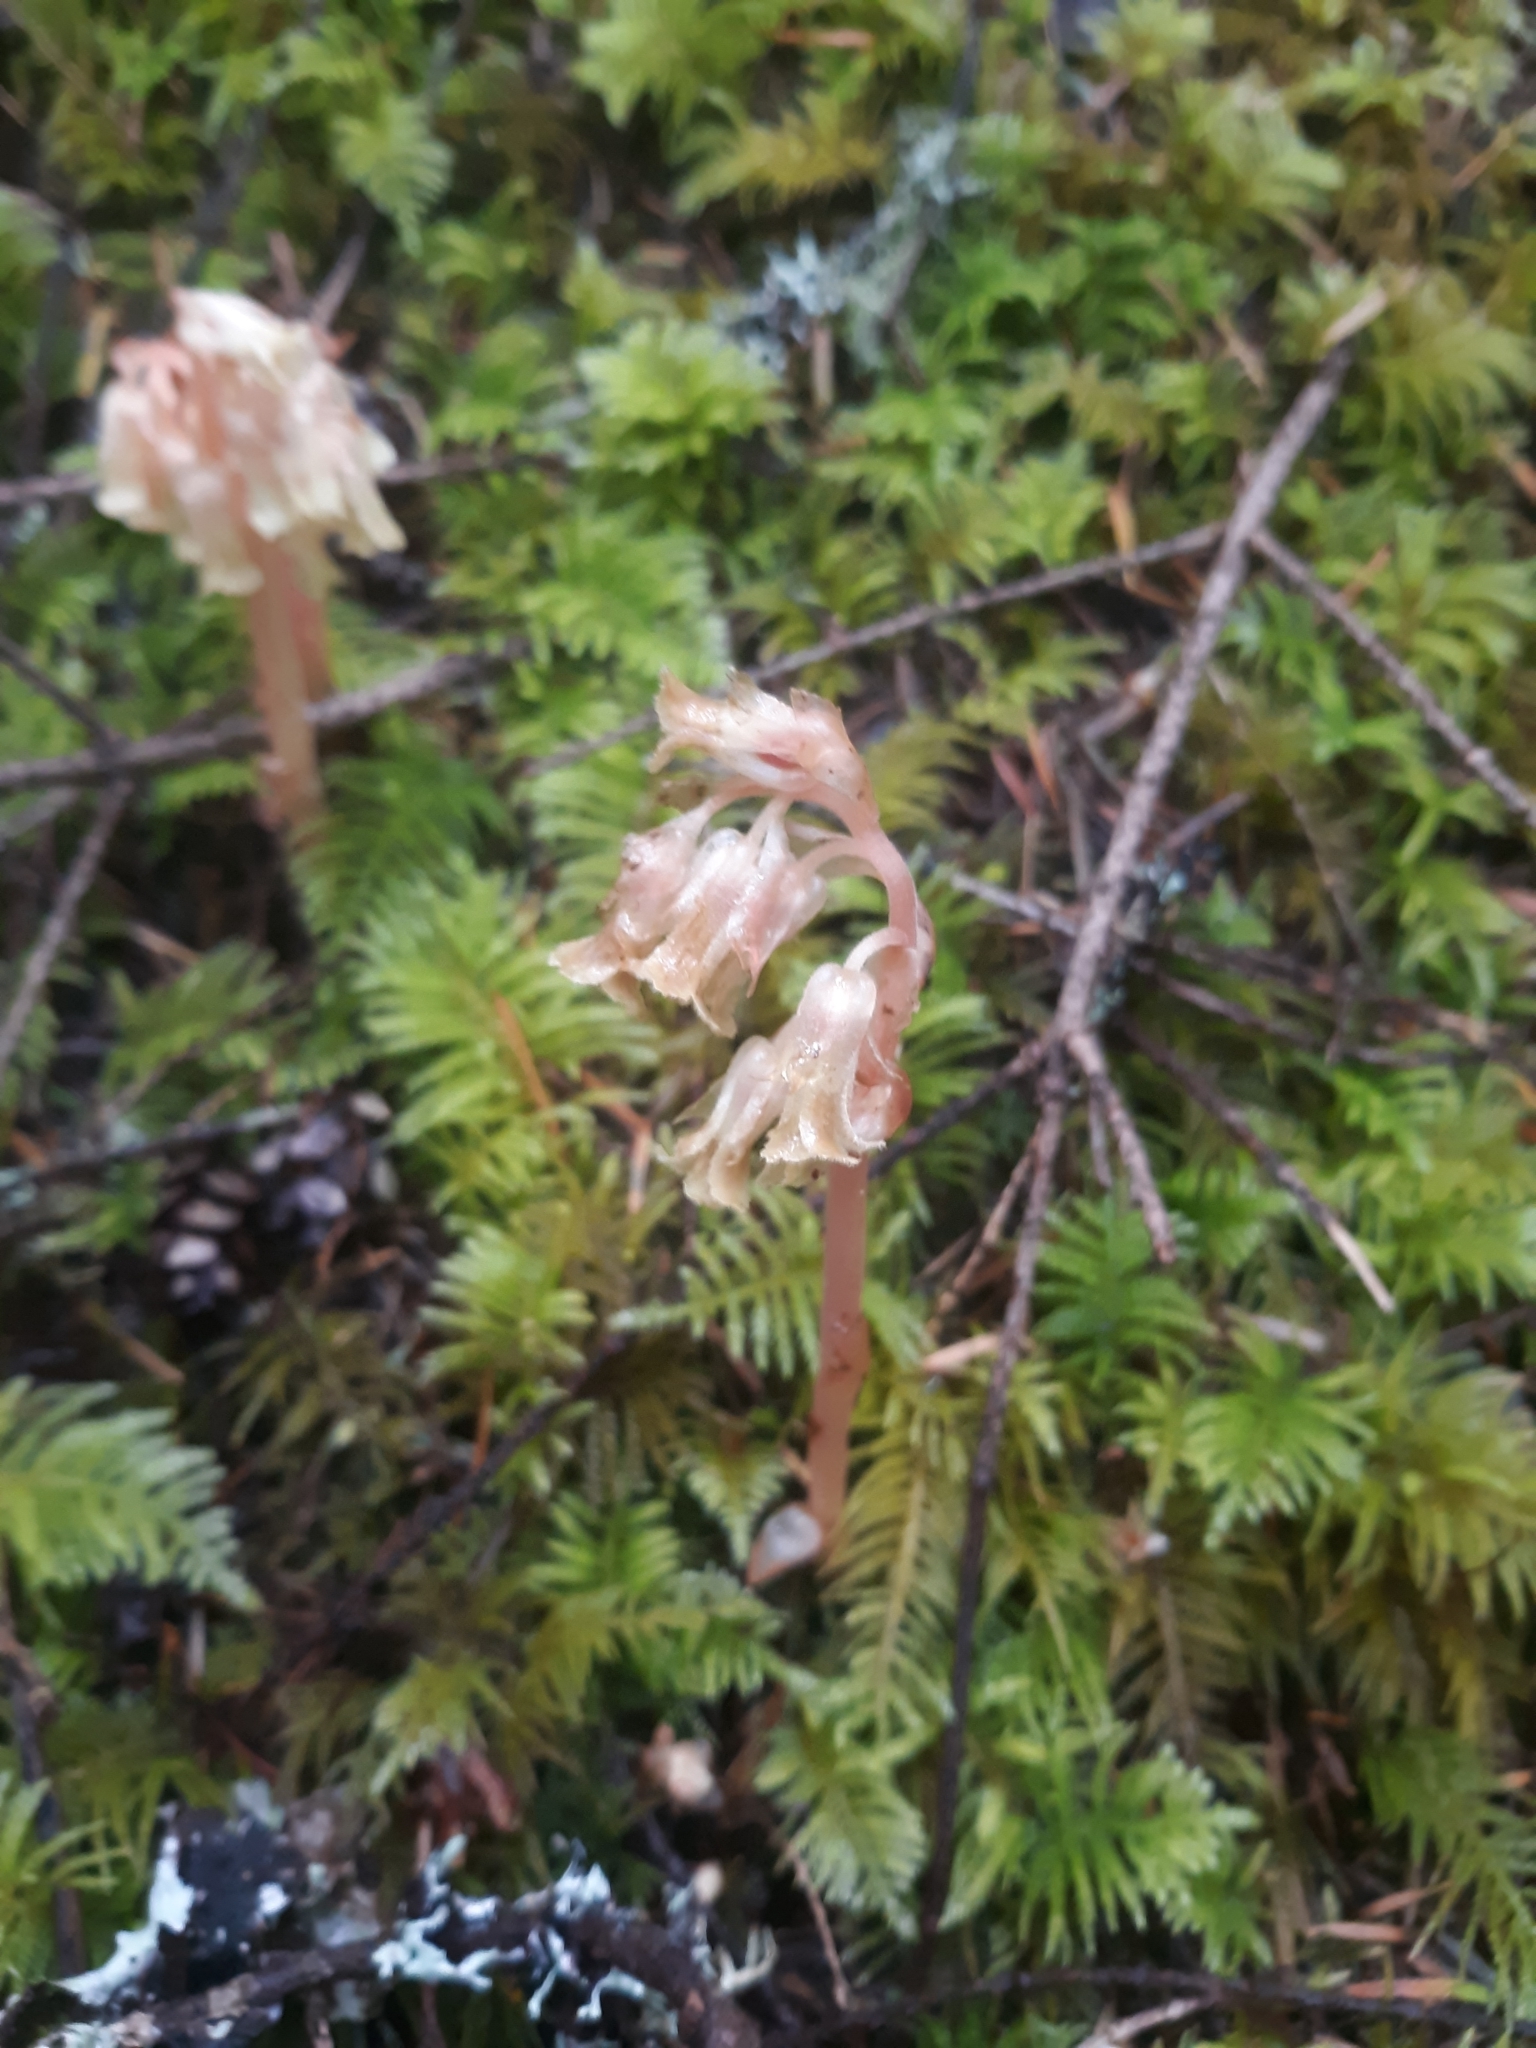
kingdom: Plantae
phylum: Tracheophyta
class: Magnoliopsida
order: Ericales
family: Ericaceae
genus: Hypopitys
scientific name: Hypopitys monotropa
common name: Yellow bird's-nest
